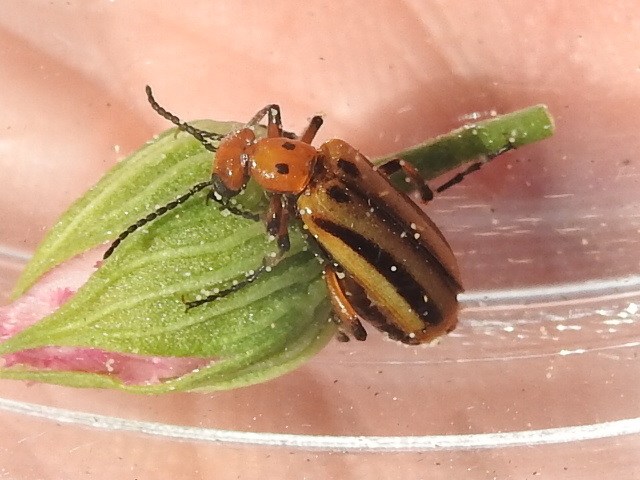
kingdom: Animalia
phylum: Arthropoda
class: Insecta
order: Coleoptera
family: Meloidae
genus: Pyrota
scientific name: Pyrota discoidea
